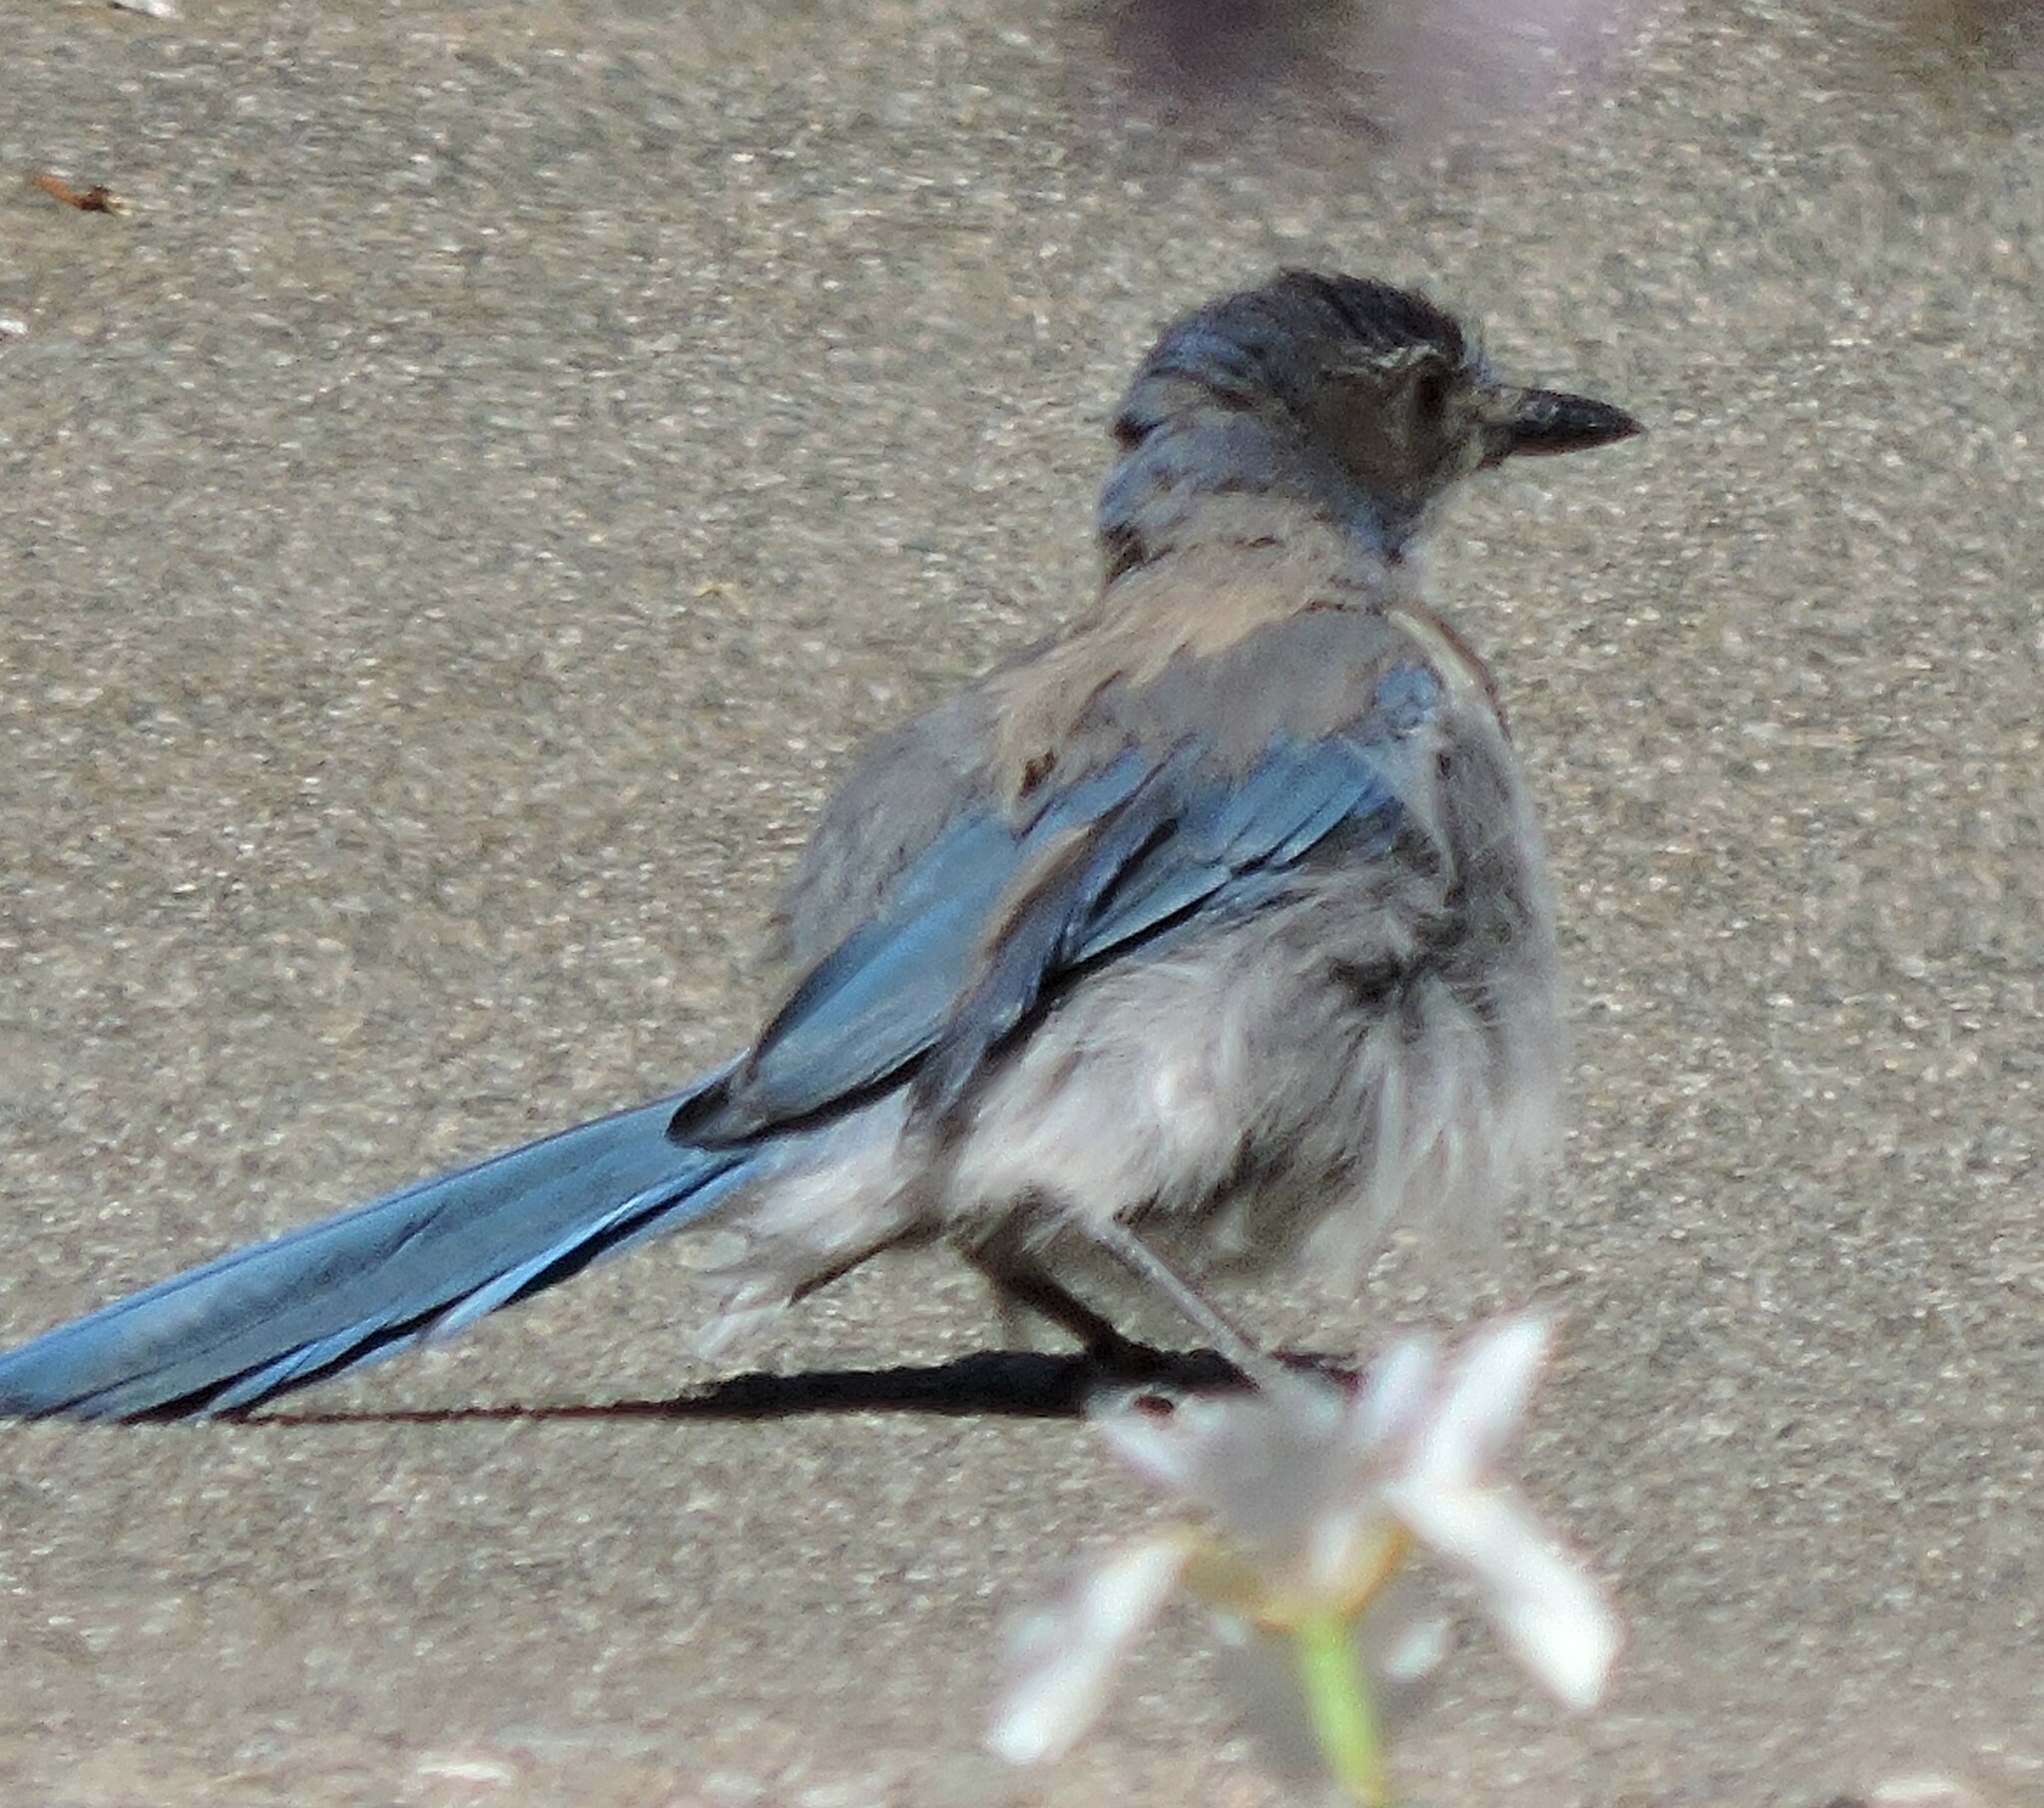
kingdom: Animalia
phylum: Chordata
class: Aves
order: Passeriformes
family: Corvidae
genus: Aphelocoma
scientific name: Aphelocoma californica
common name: California scrub-jay
